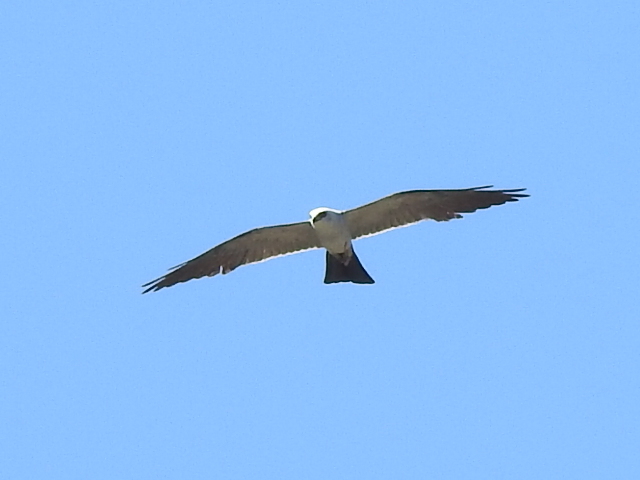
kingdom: Animalia
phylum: Chordata
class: Aves
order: Accipitriformes
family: Accipitridae
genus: Ictinia
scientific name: Ictinia mississippiensis
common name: Mississippi kite
